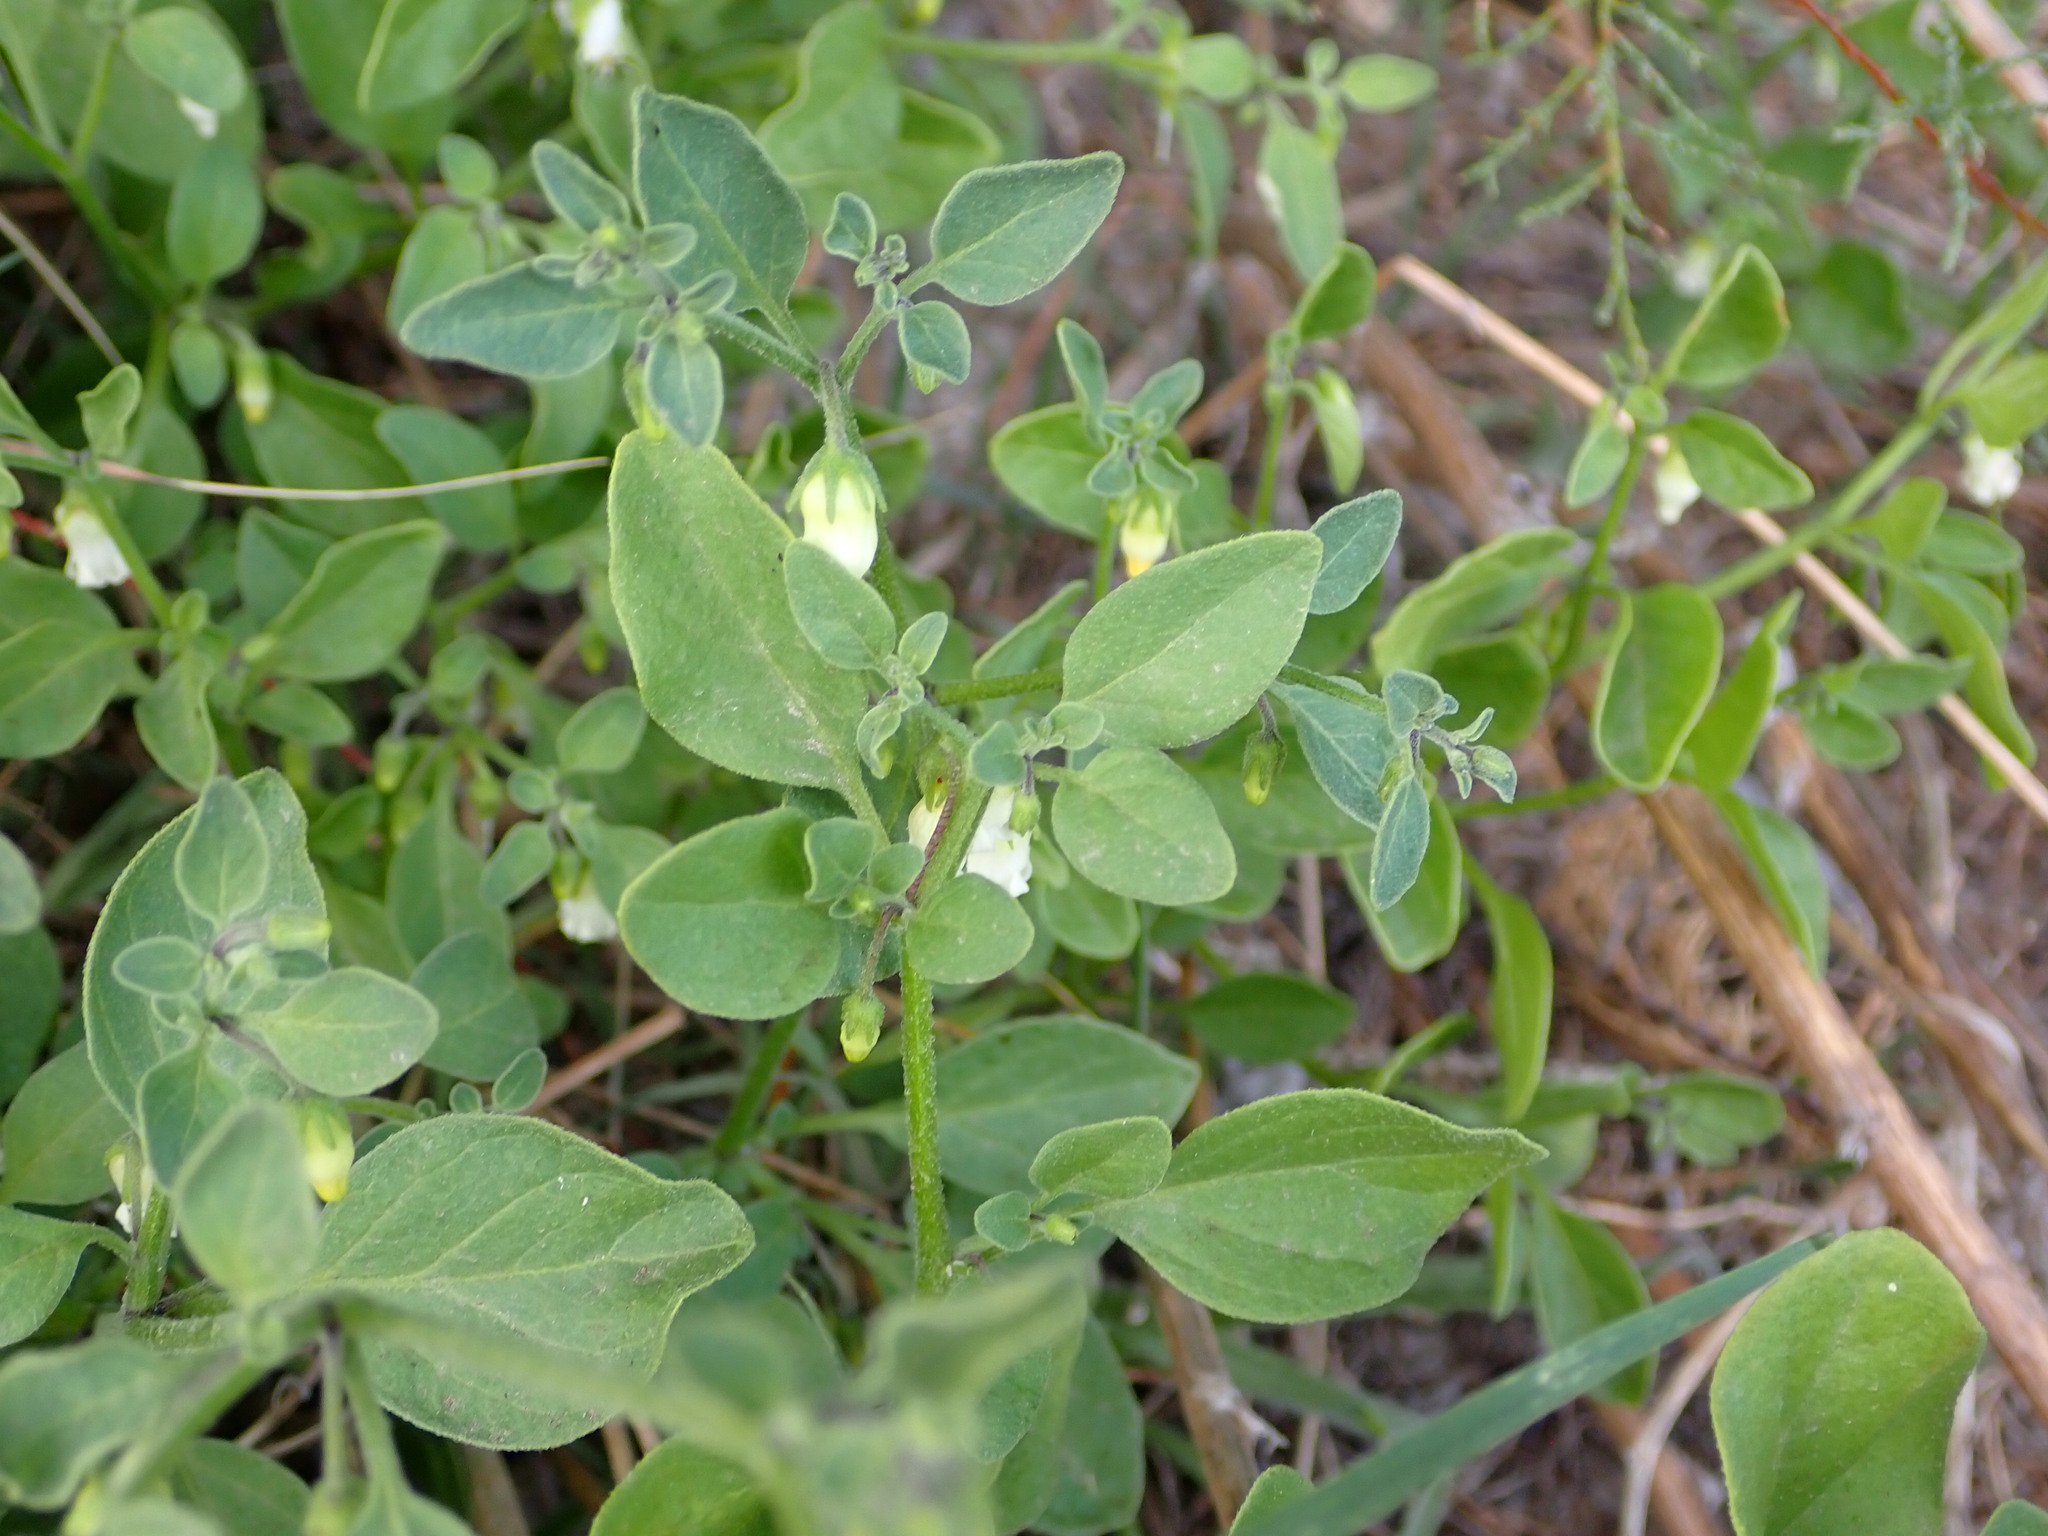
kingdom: Plantae
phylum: Tracheophyta
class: Magnoliopsida
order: Solanales
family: Solanaceae
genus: Salpichroa
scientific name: Salpichroa origanifolia
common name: Lily-of-the-valley-vine
